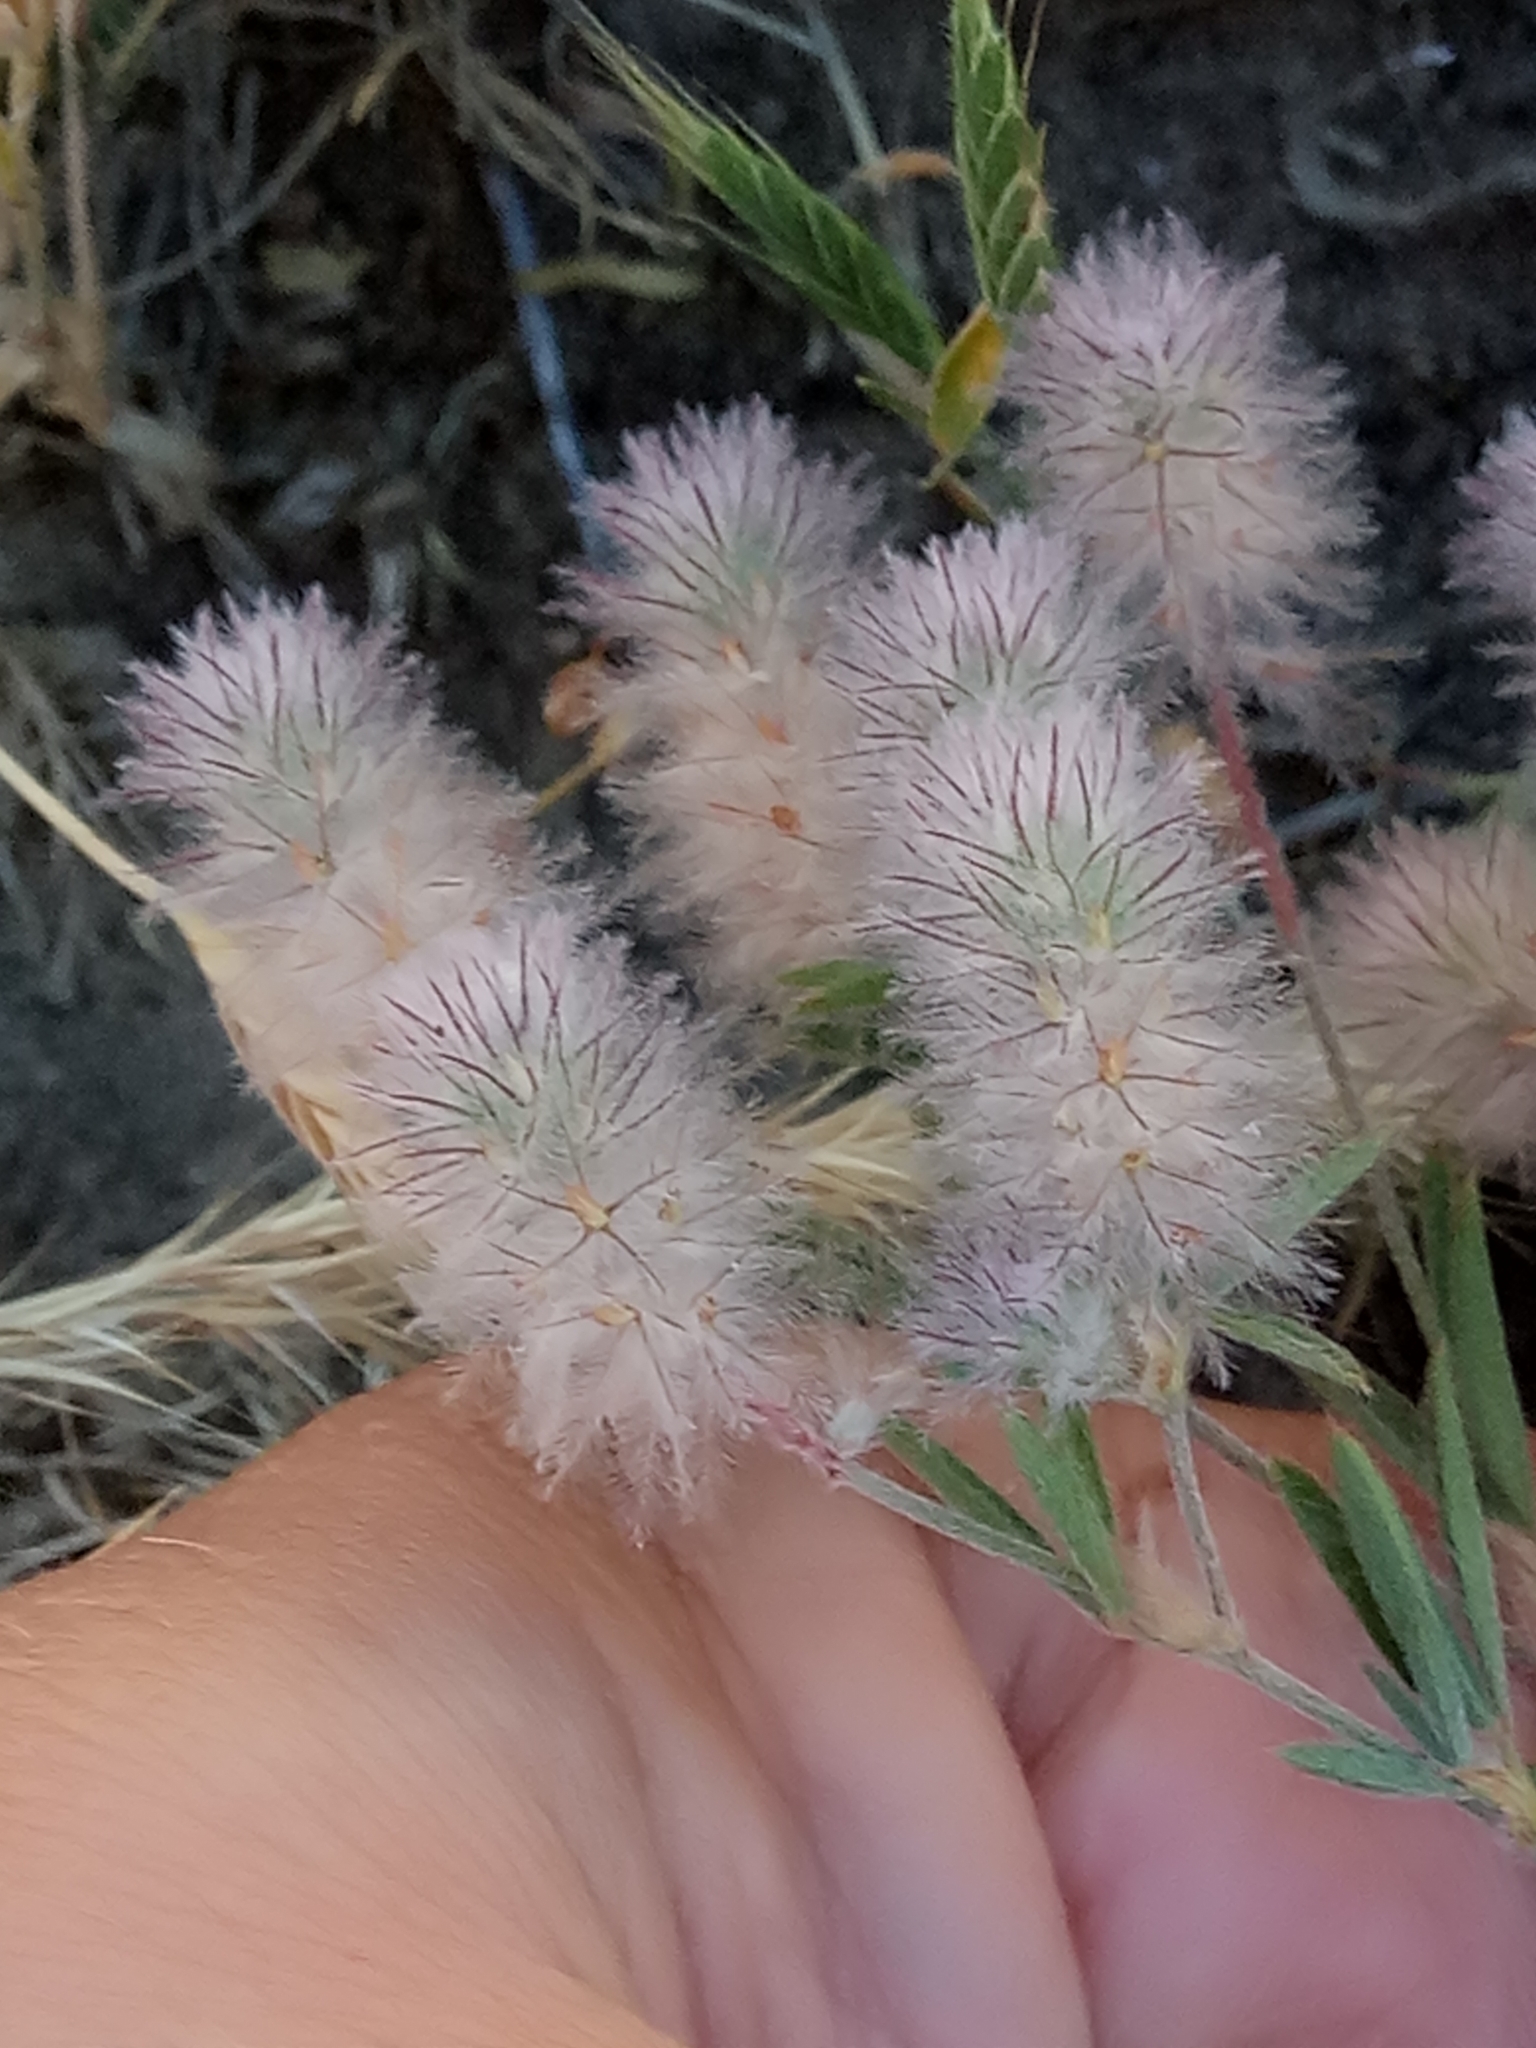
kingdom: Plantae
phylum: Tracheophyta
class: Magnoliopsida
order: Fabales
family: Fabaceae
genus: Trifolium
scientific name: Trifolium arvense
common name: Hare's-foot clover
